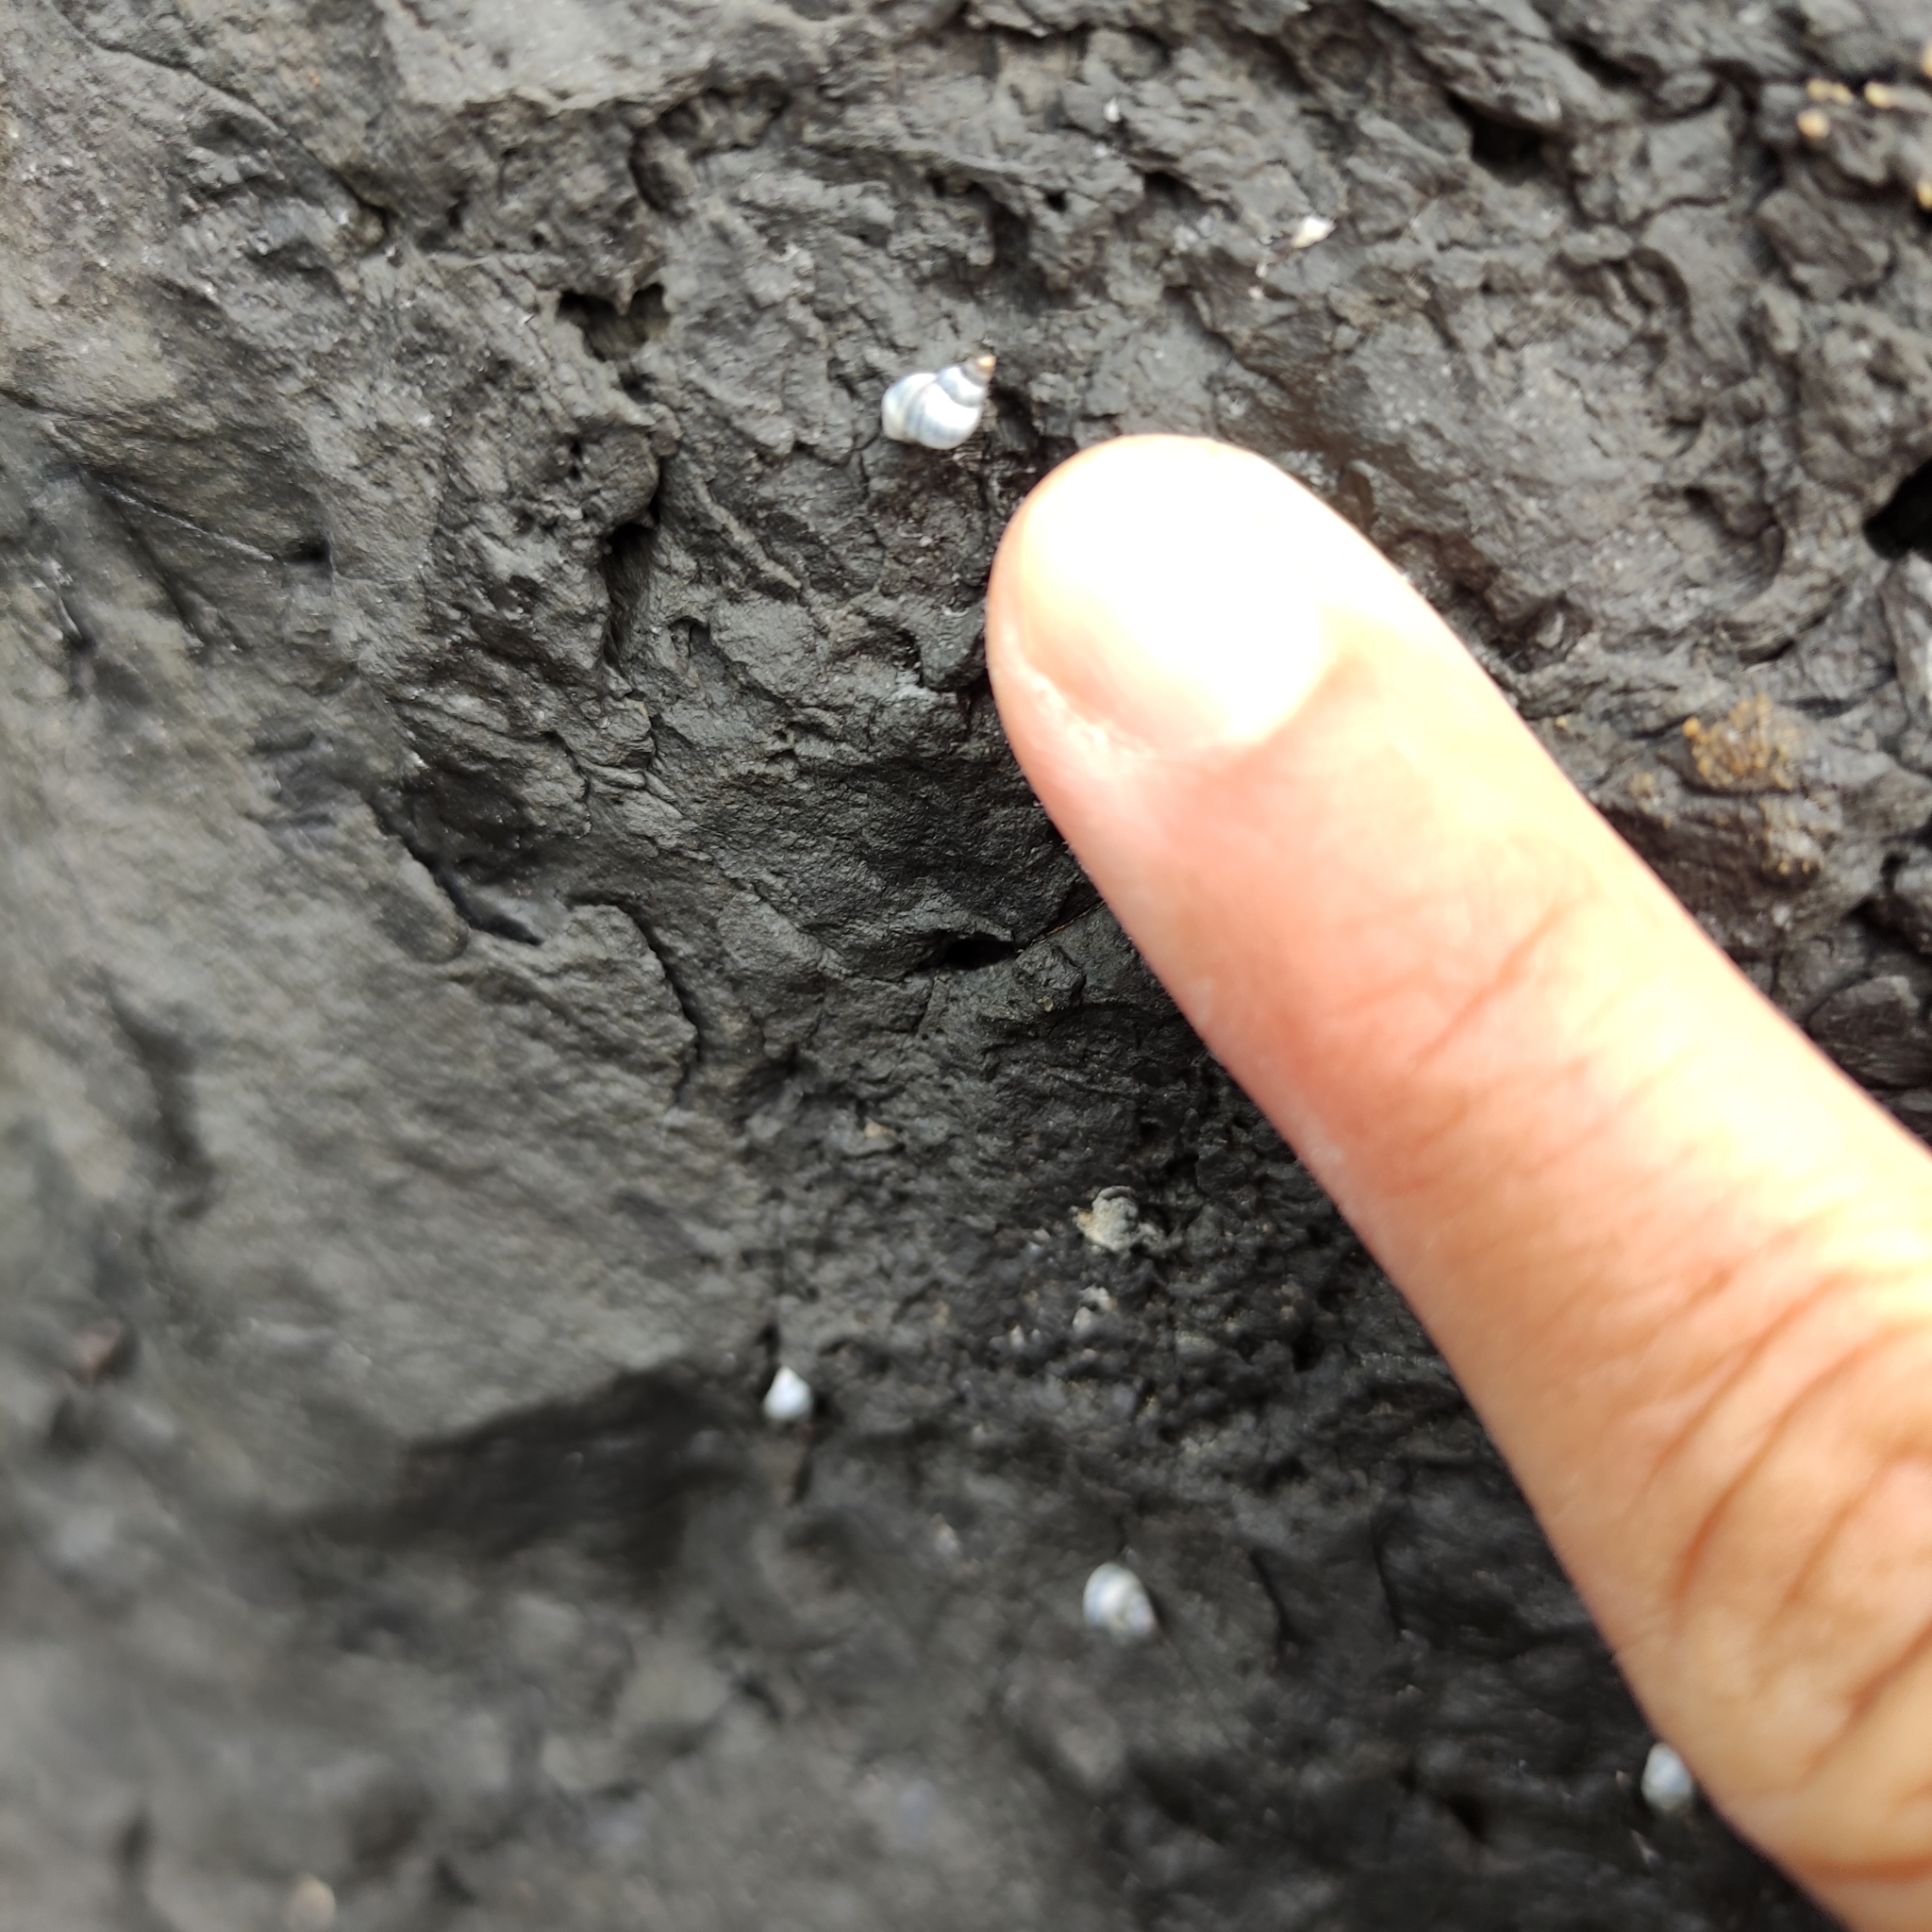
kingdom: Animalia
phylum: Mollusca
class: Gastropoda
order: Littorinimorpha
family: Littorinidae
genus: Austrolittorina
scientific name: Austrolittorina antipodum
